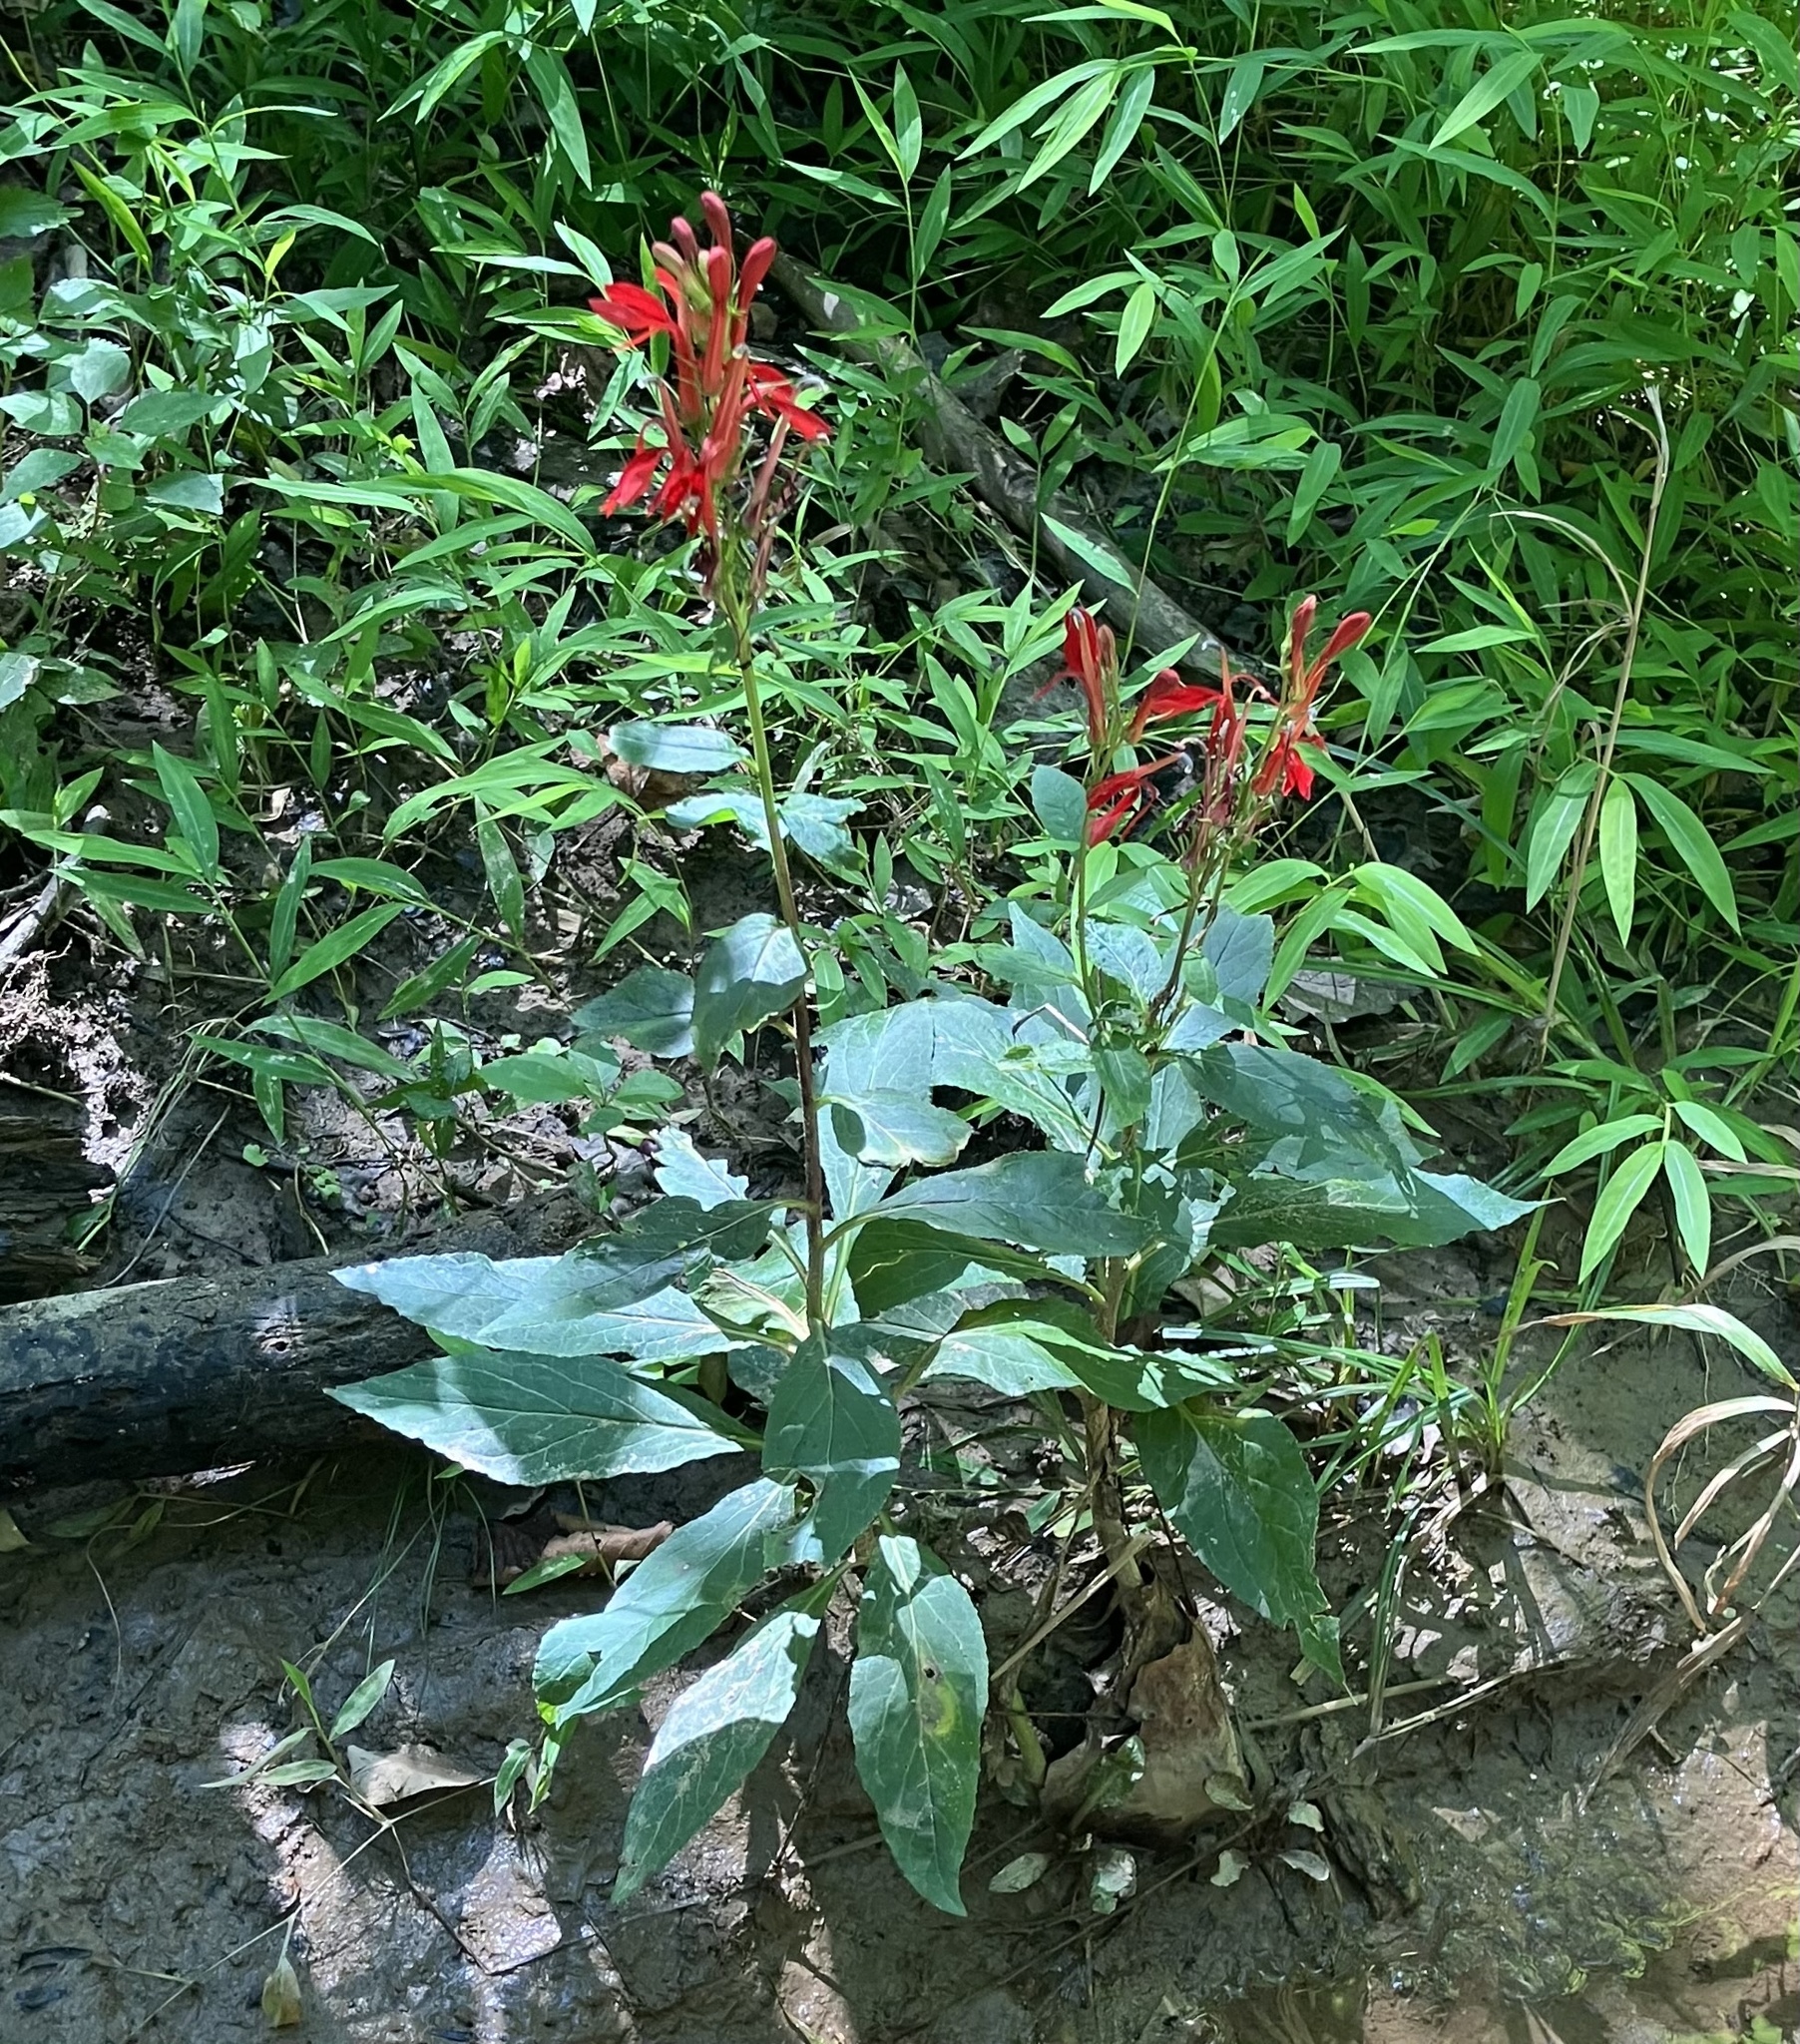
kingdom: Plantae
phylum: Tracheophyta
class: Magnoliopsida
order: Asterales
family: Campanulaceae
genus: Lobelia
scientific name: Lobelia cardinalis
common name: Cardinal flower
